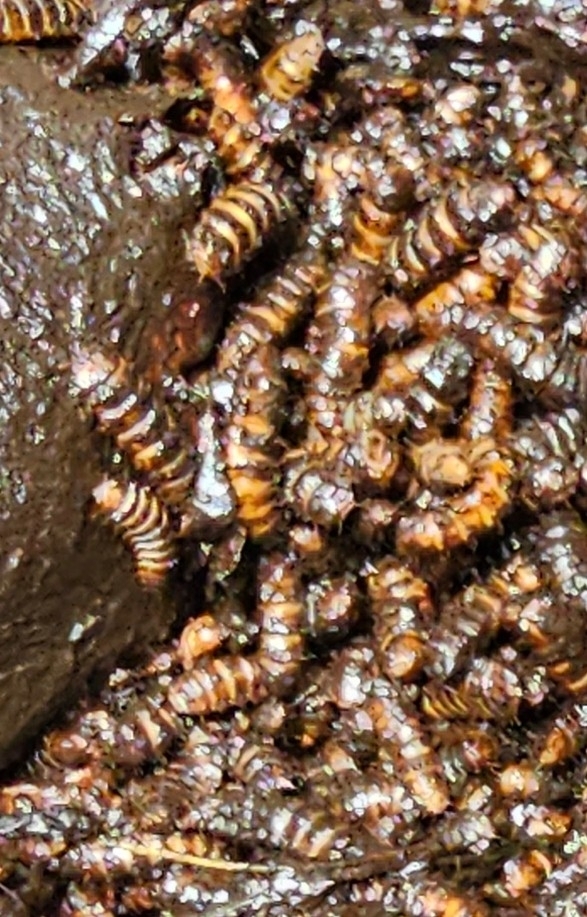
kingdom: Animalia
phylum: Arthropoda
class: Insecta
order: Diptera
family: Stratiomyidae
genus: Hermetia
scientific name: Hermetia illucens
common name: Black soldier fly
